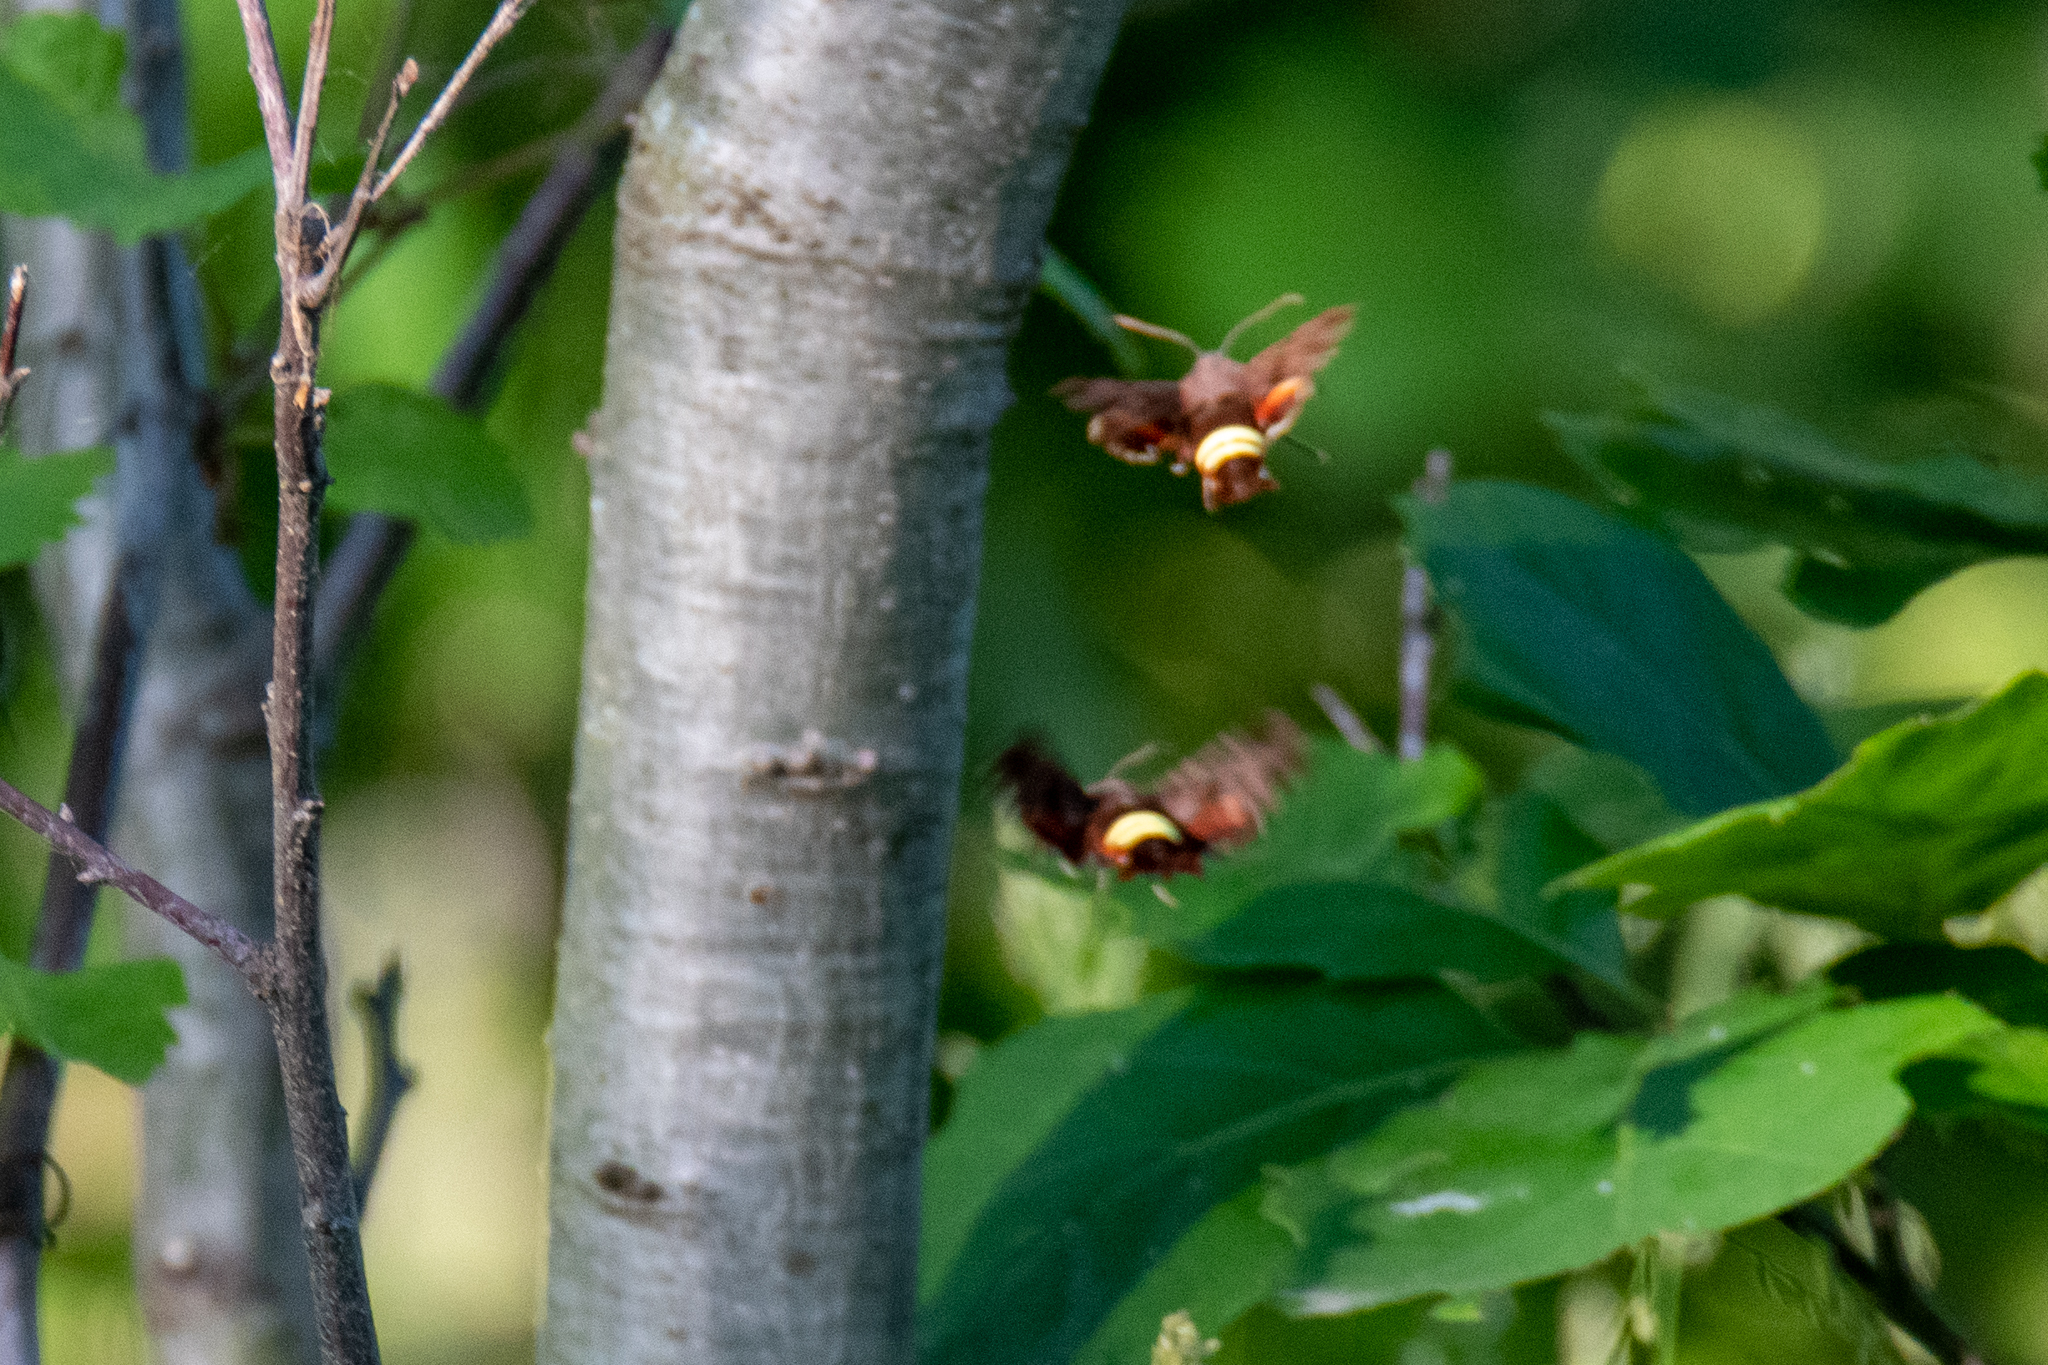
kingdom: Animalia
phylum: Arthropoda
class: Insecta
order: Lepidoptera
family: Sphingidae
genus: Amphion
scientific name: Amphion floridensis
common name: Nessus sphinx
